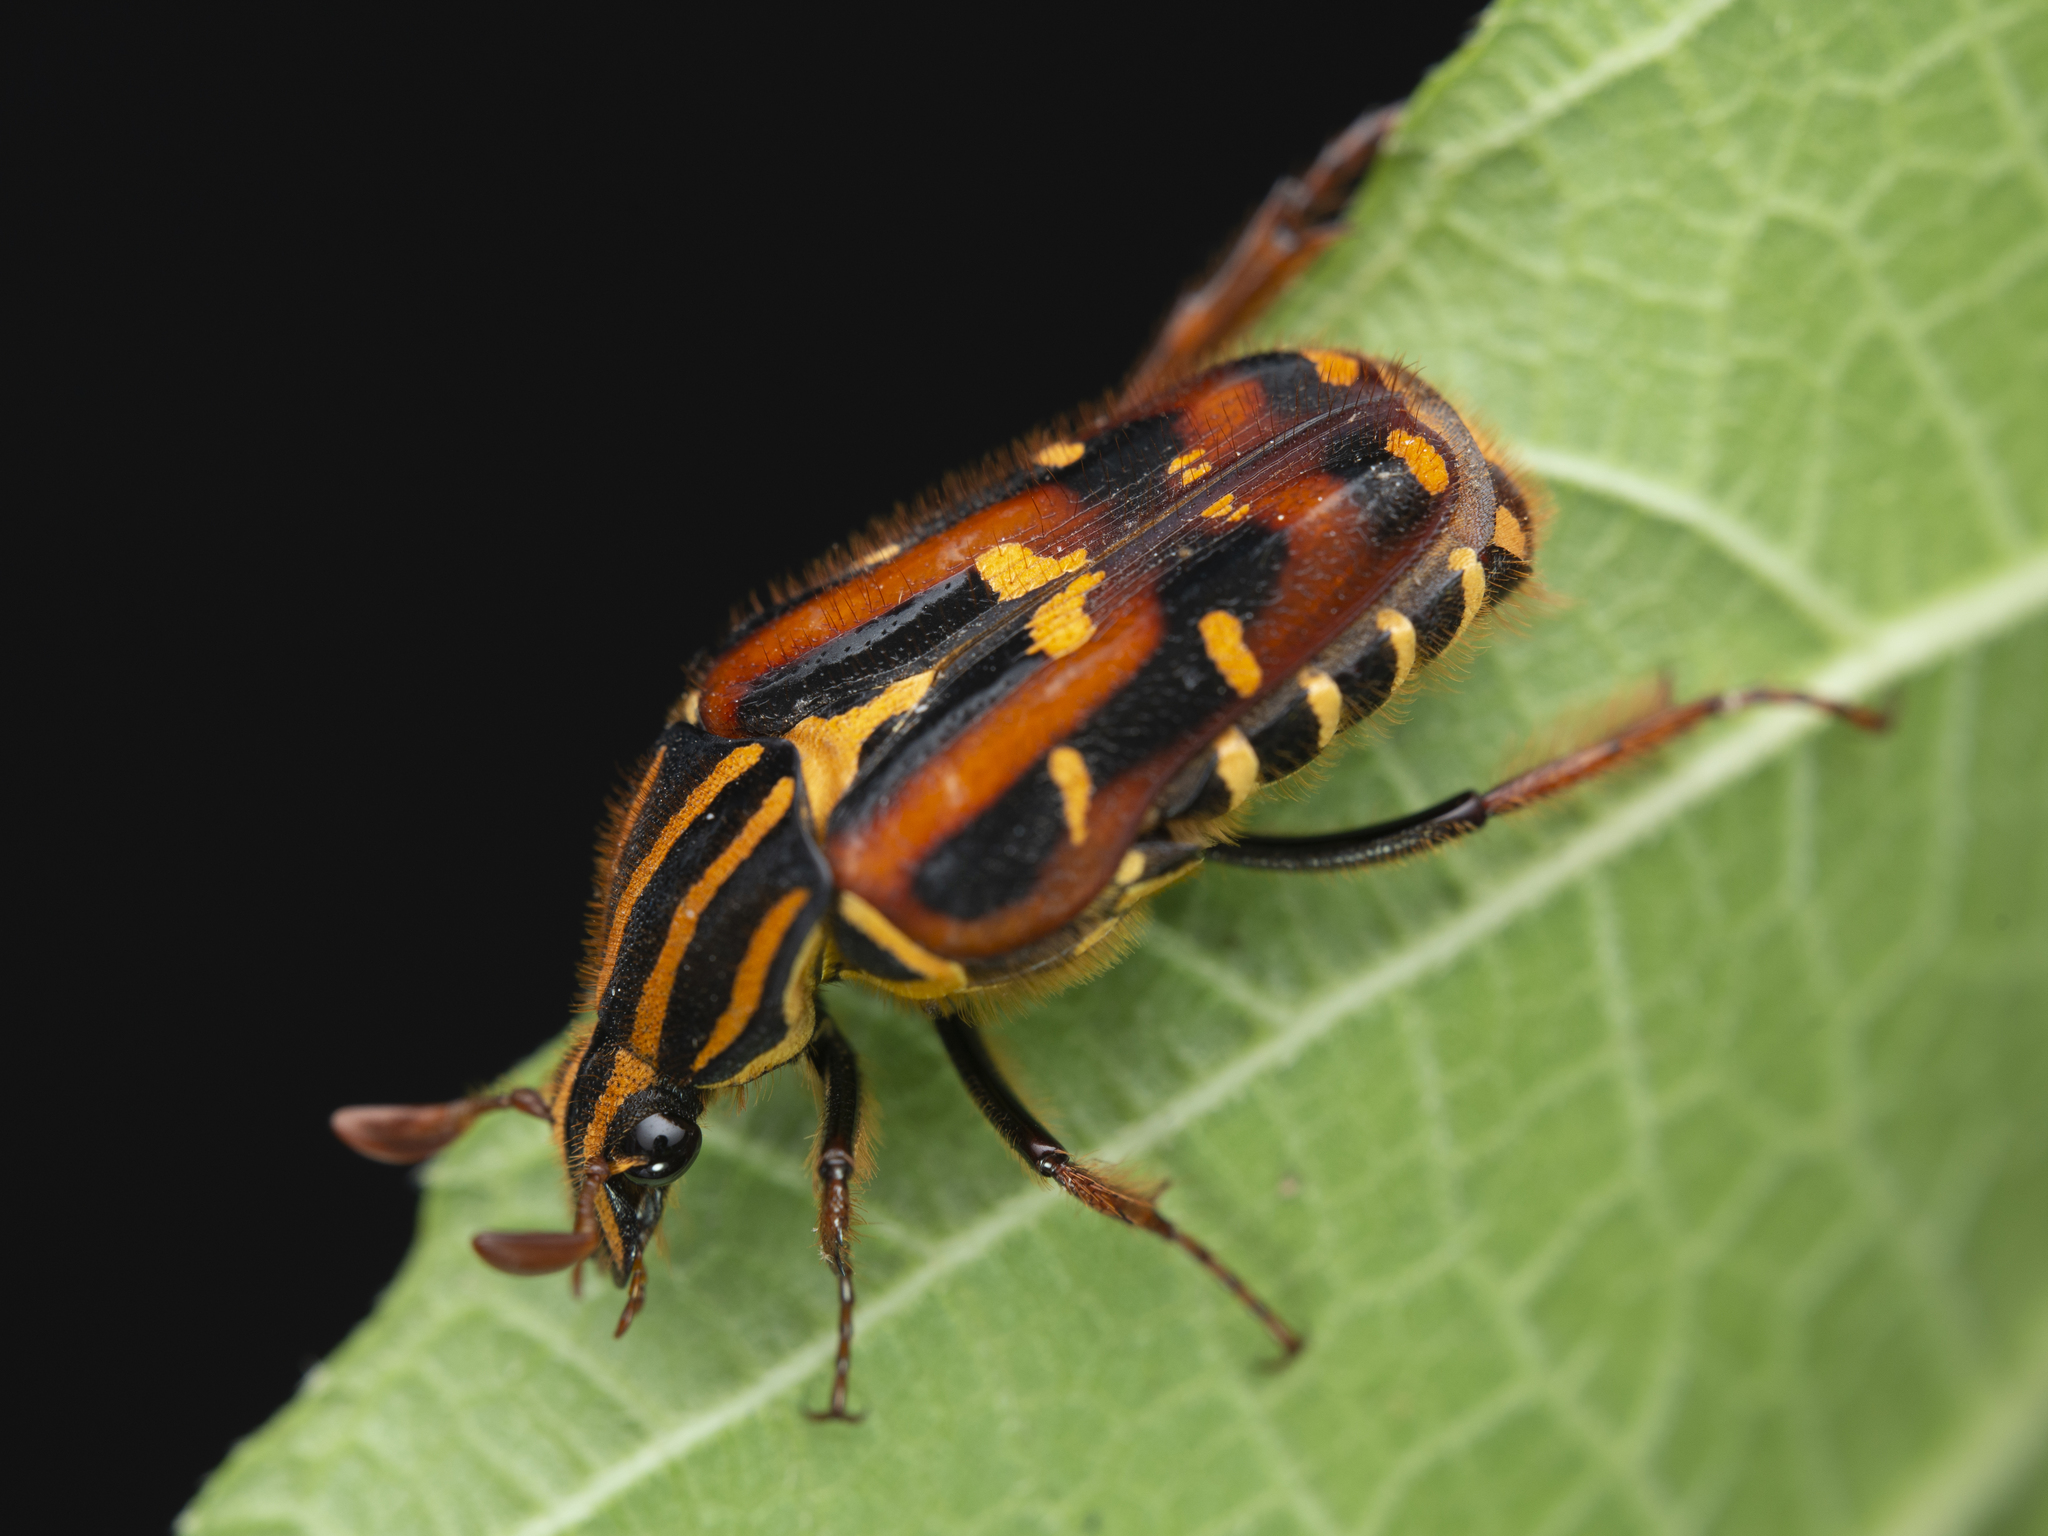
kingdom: Animalia
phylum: Arthropoda
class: Insecta
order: Coleoptera
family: Scarabaeidae
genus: Euselates
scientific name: Euselates magna
